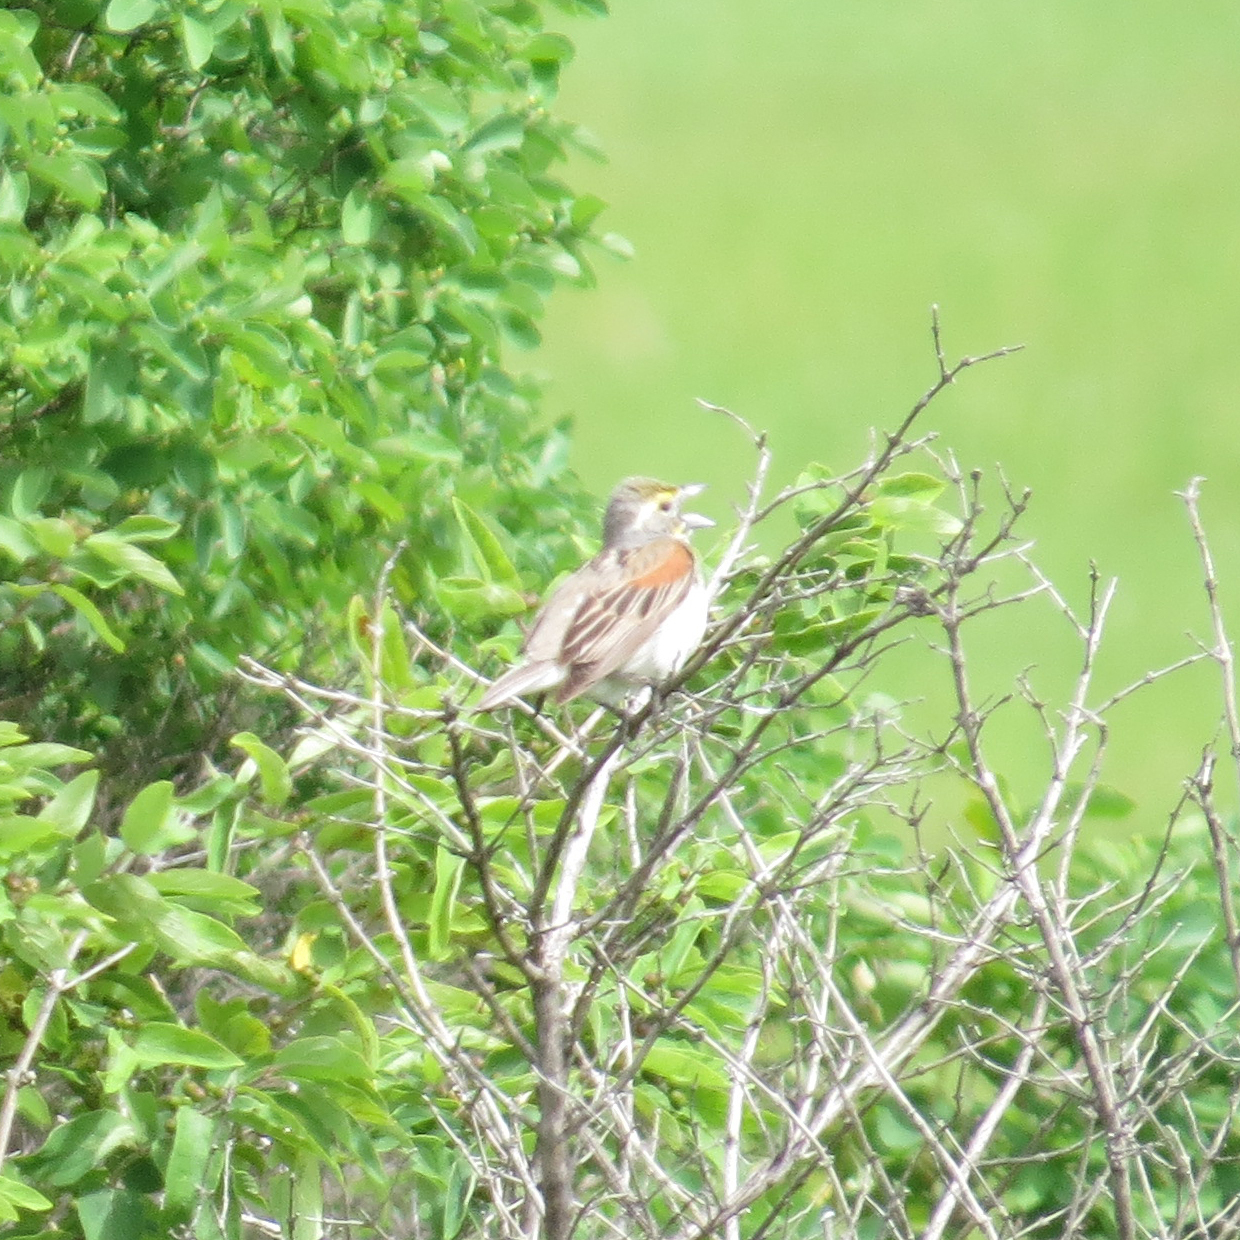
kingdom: Animalia
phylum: Chordata
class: Aves
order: Passeriformes
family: Cardinalidae
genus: Spiza
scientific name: Spiza americana
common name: Dickcissel
